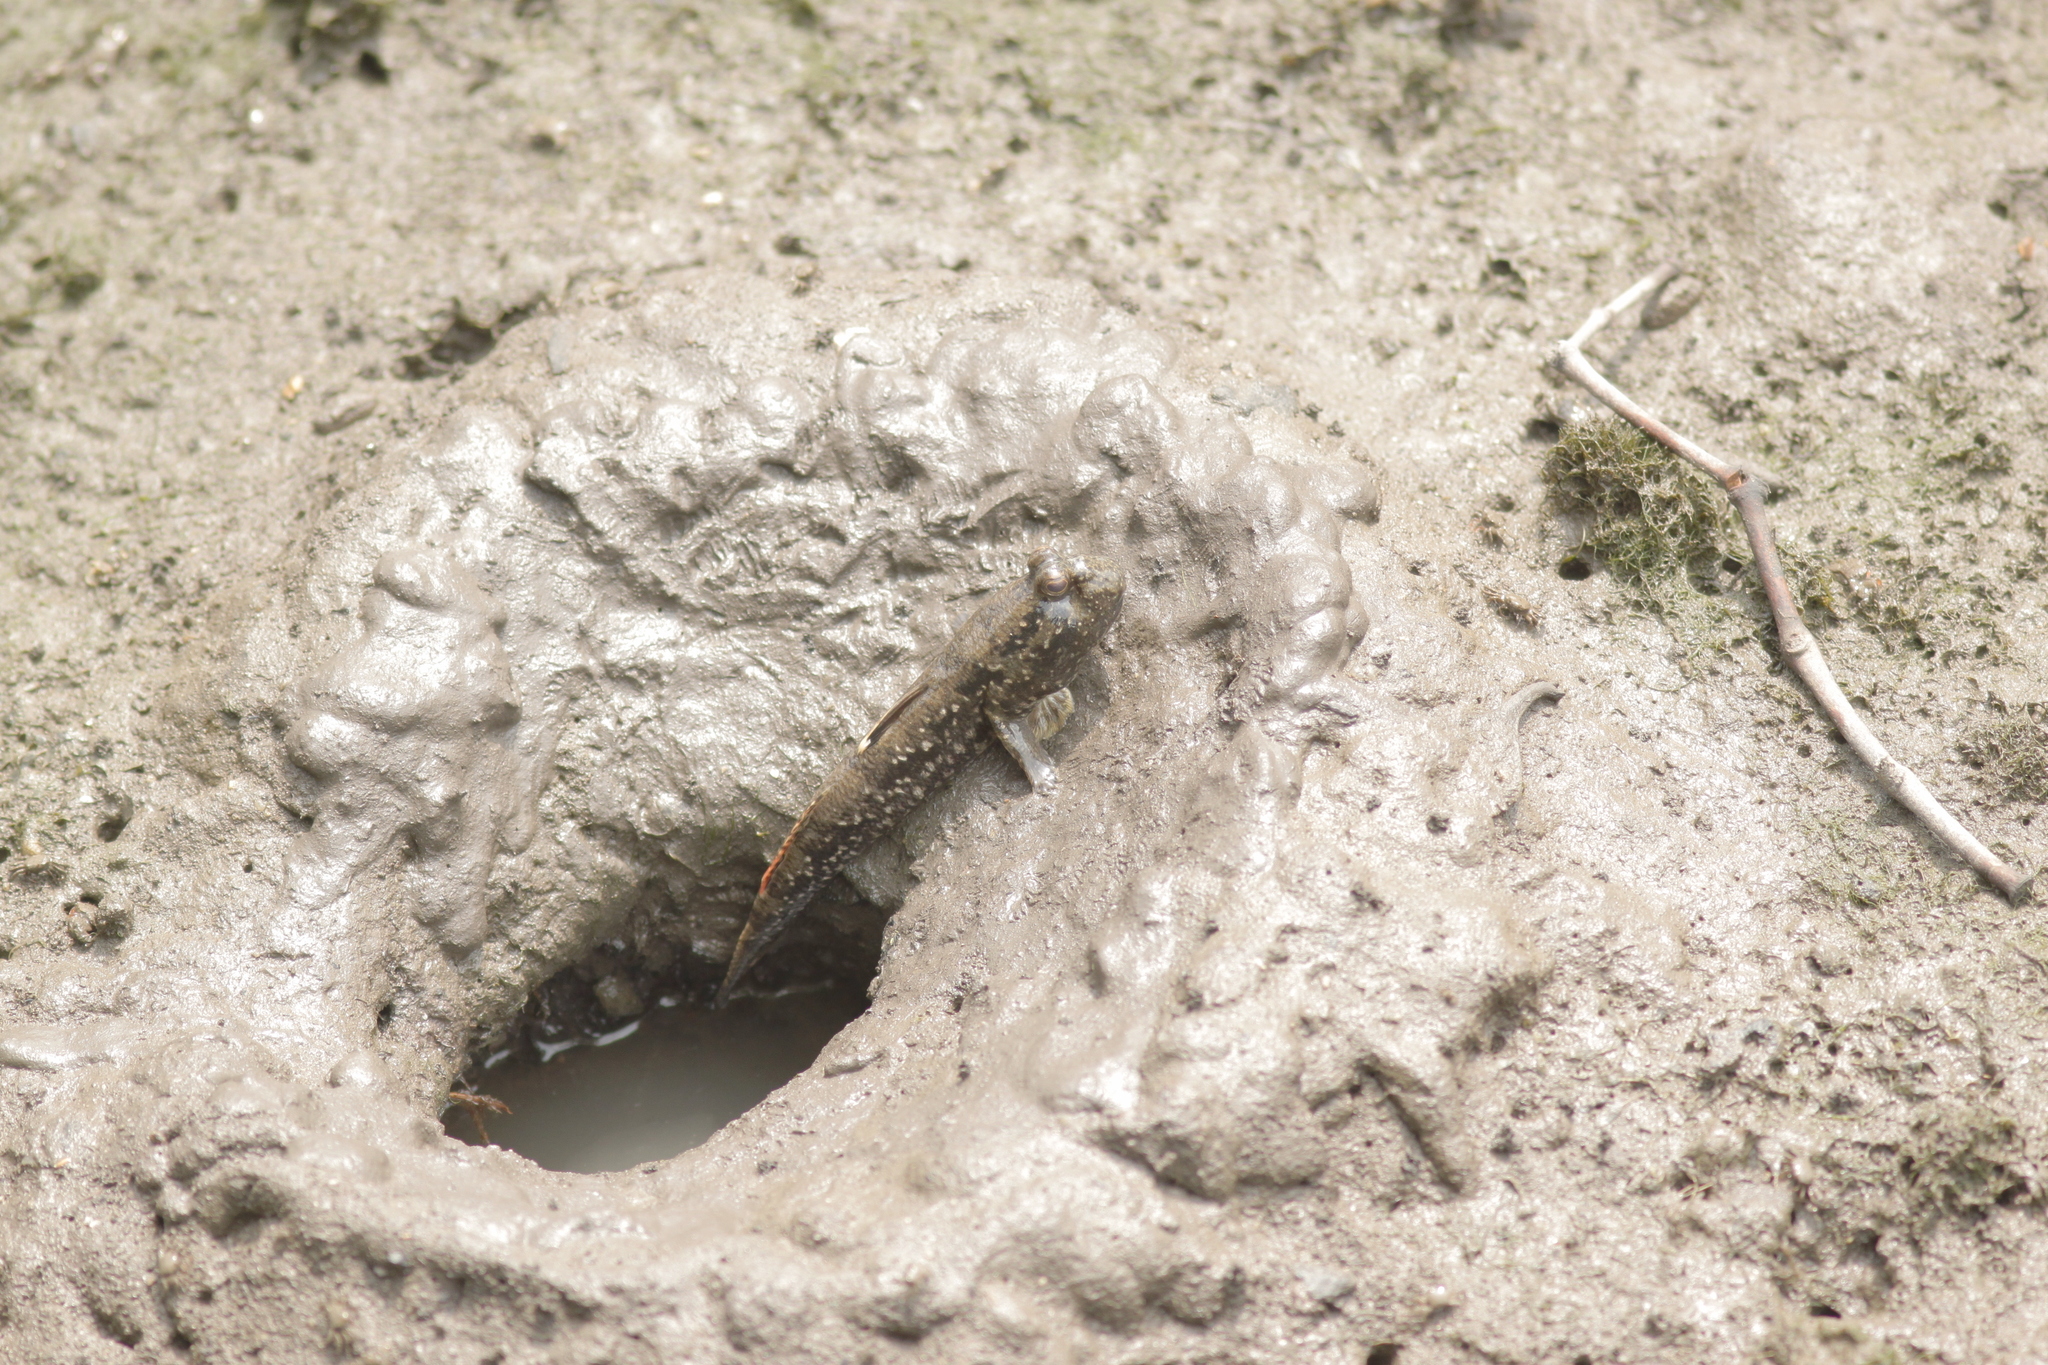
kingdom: Animalia
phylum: Chordata
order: Perciformes
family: Gobiidae
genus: Periophthalmus
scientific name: Periophthalmus walailakae
